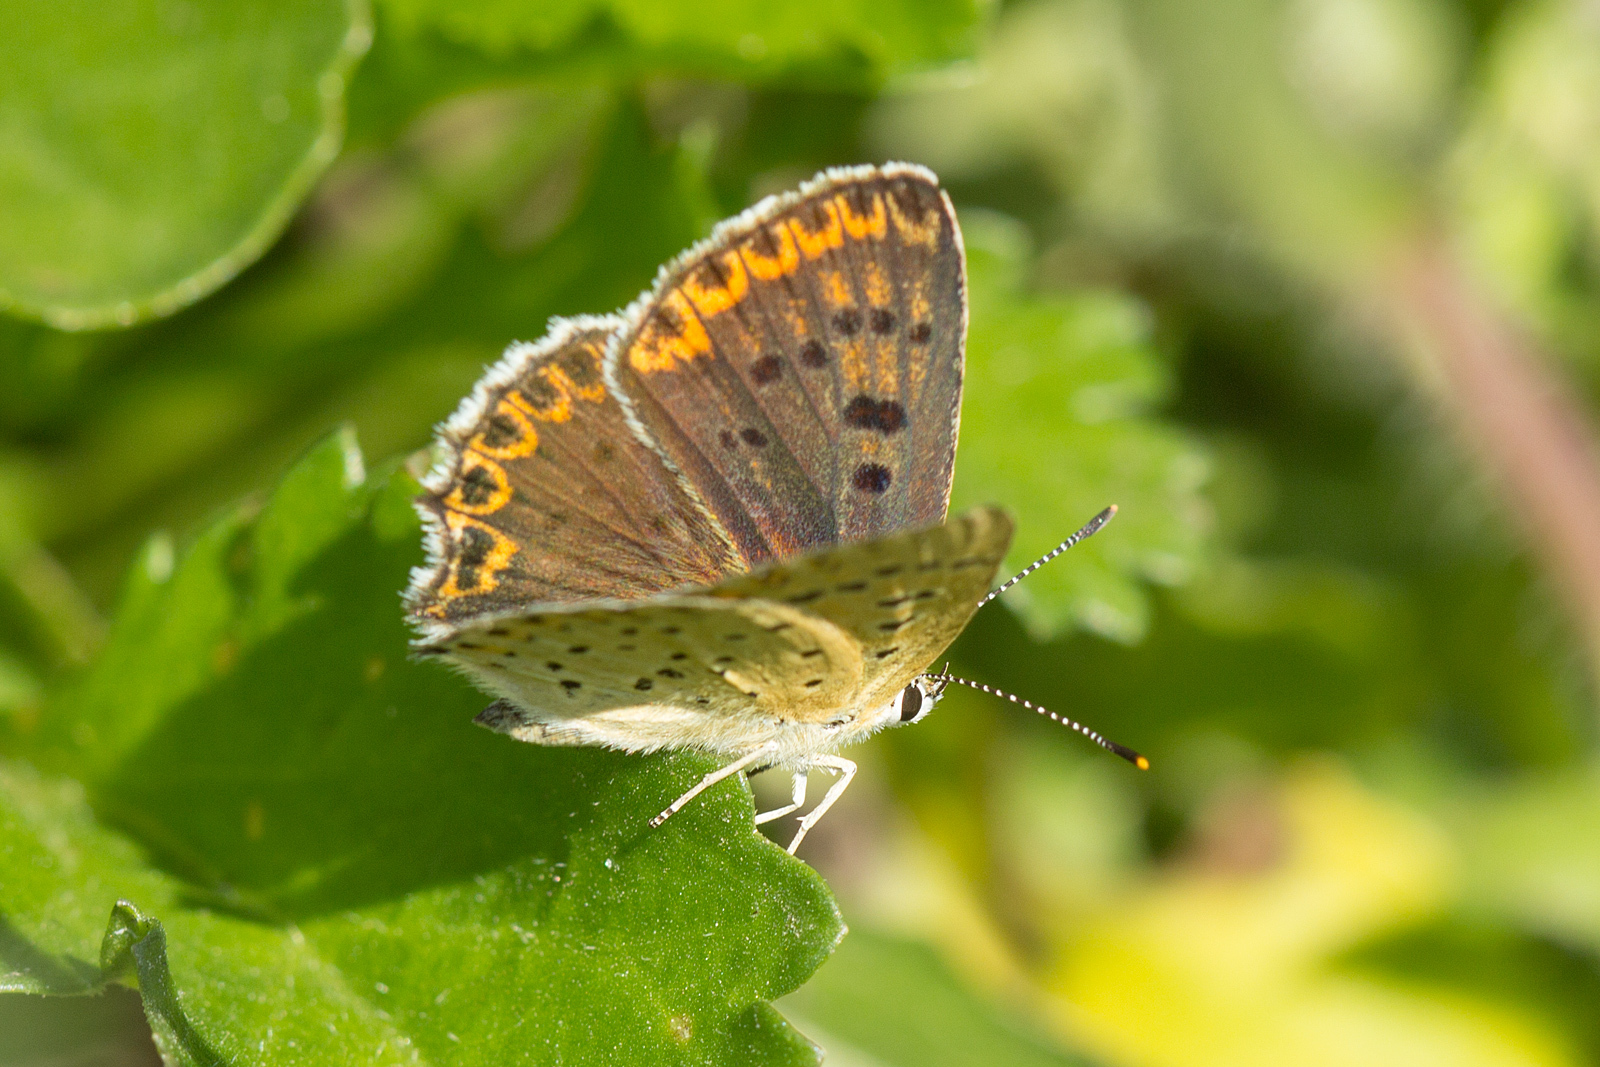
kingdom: Animalia
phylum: Arthropoda
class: Insecta
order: Lepidoptera
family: Lycaenidae
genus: Loweia
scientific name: Loweia tityrus
